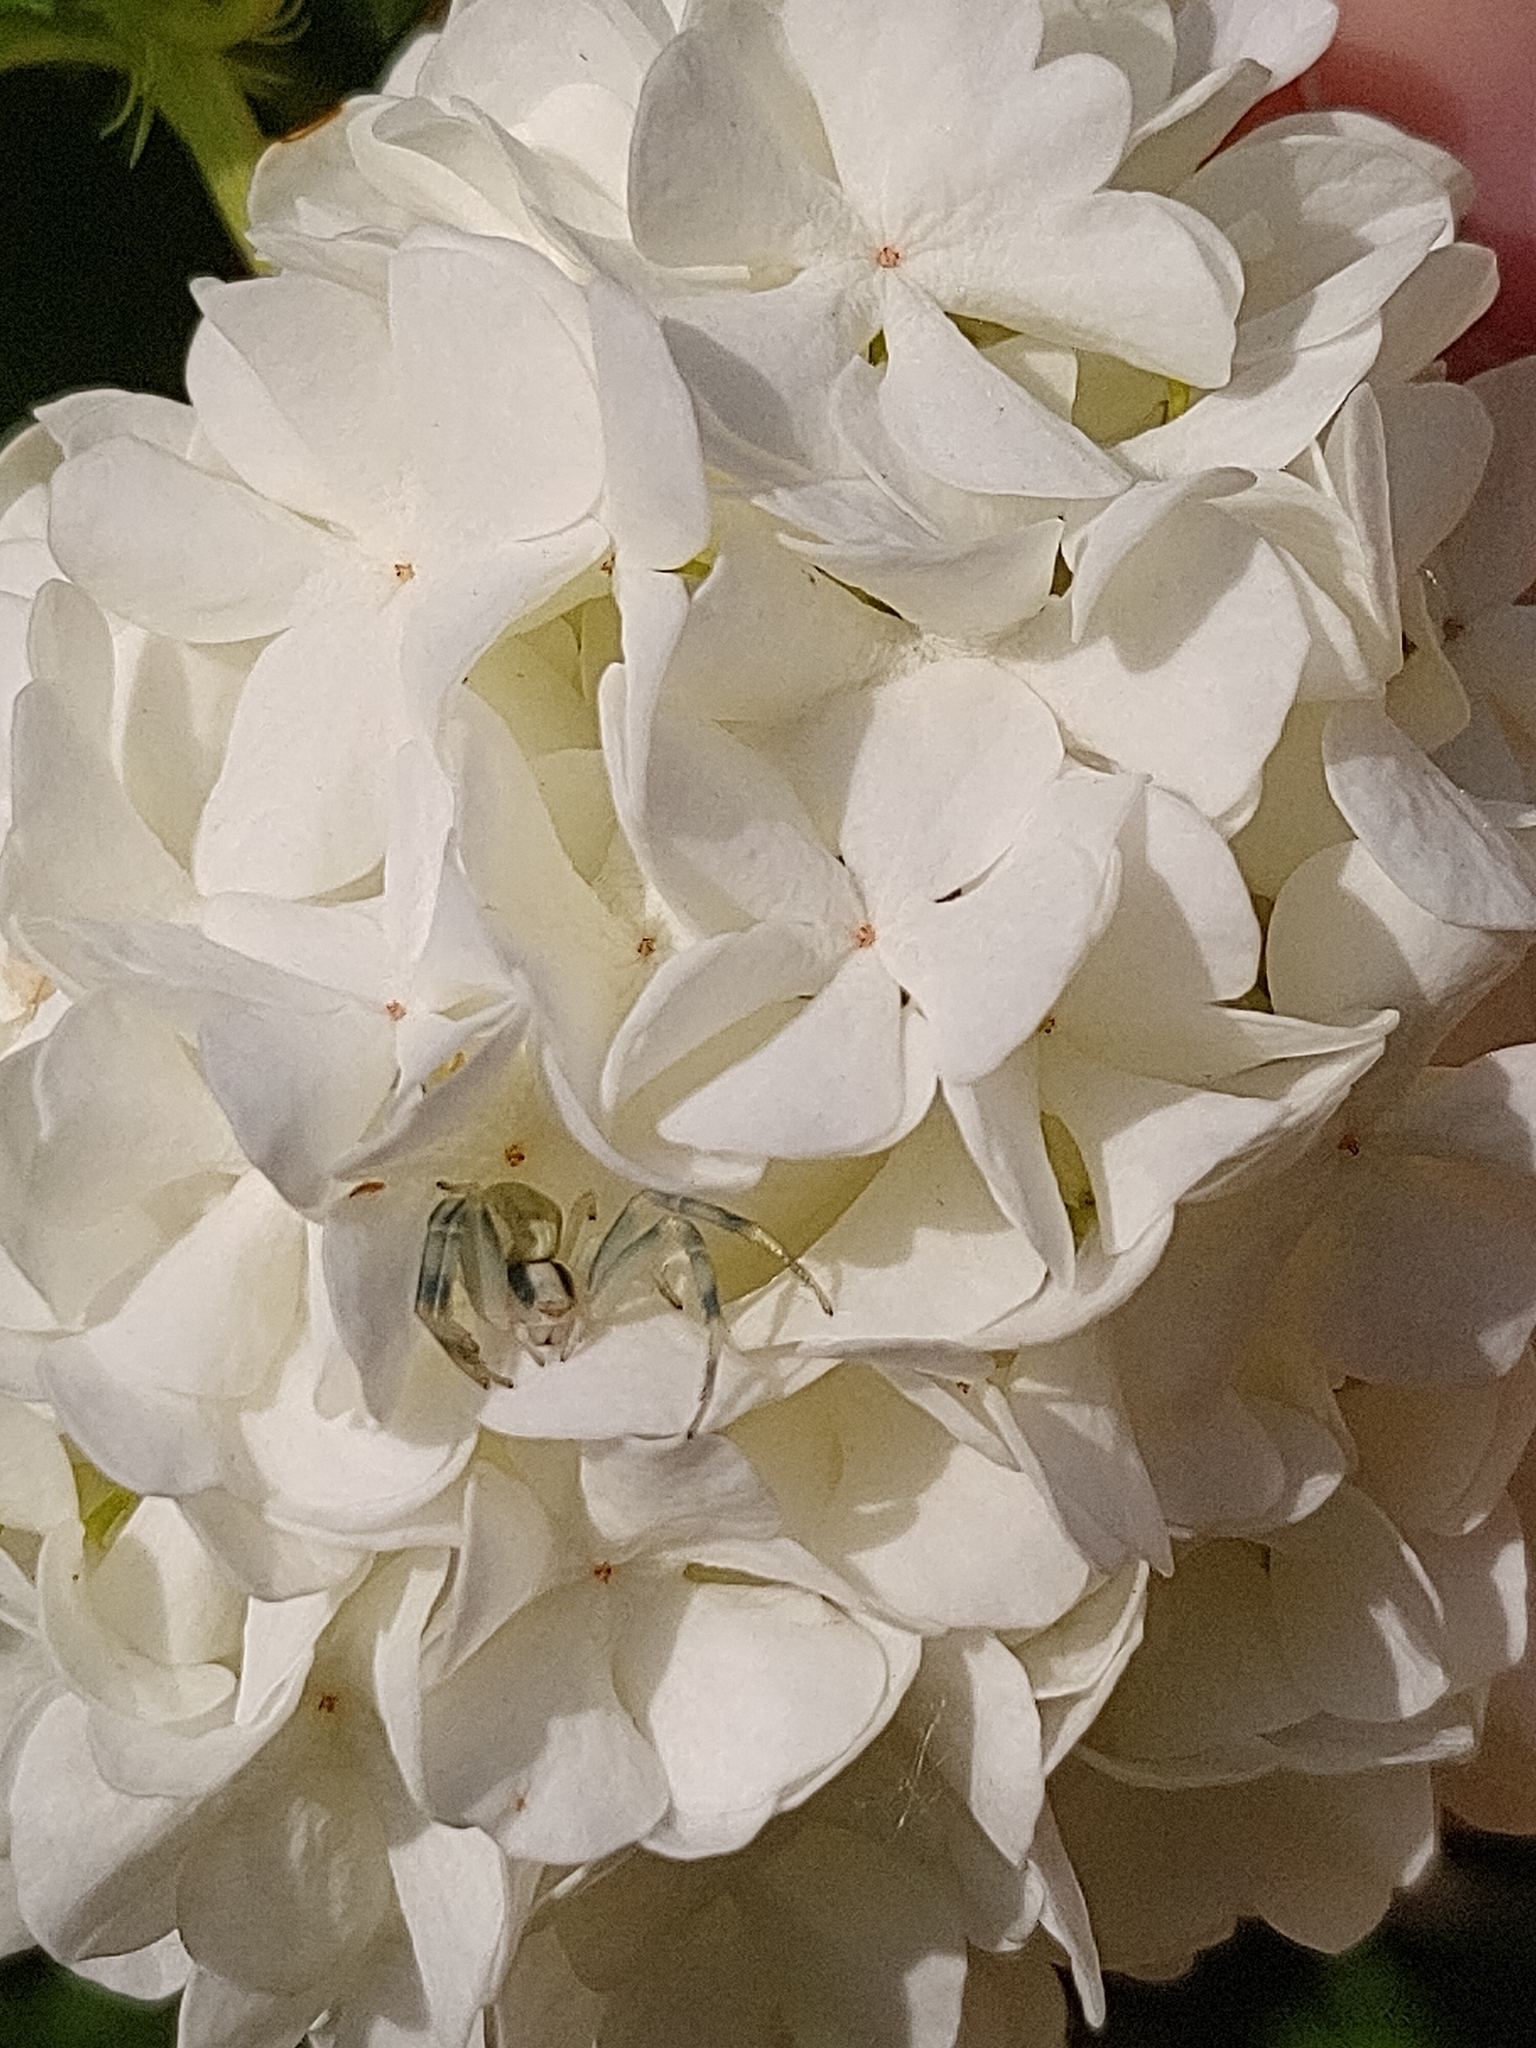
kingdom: Animalia
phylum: Arthropoda
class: Arachnida
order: Araneae
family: Thomisidae
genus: Misumena
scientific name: Misumena vatia
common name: Goldenrod crab spider
